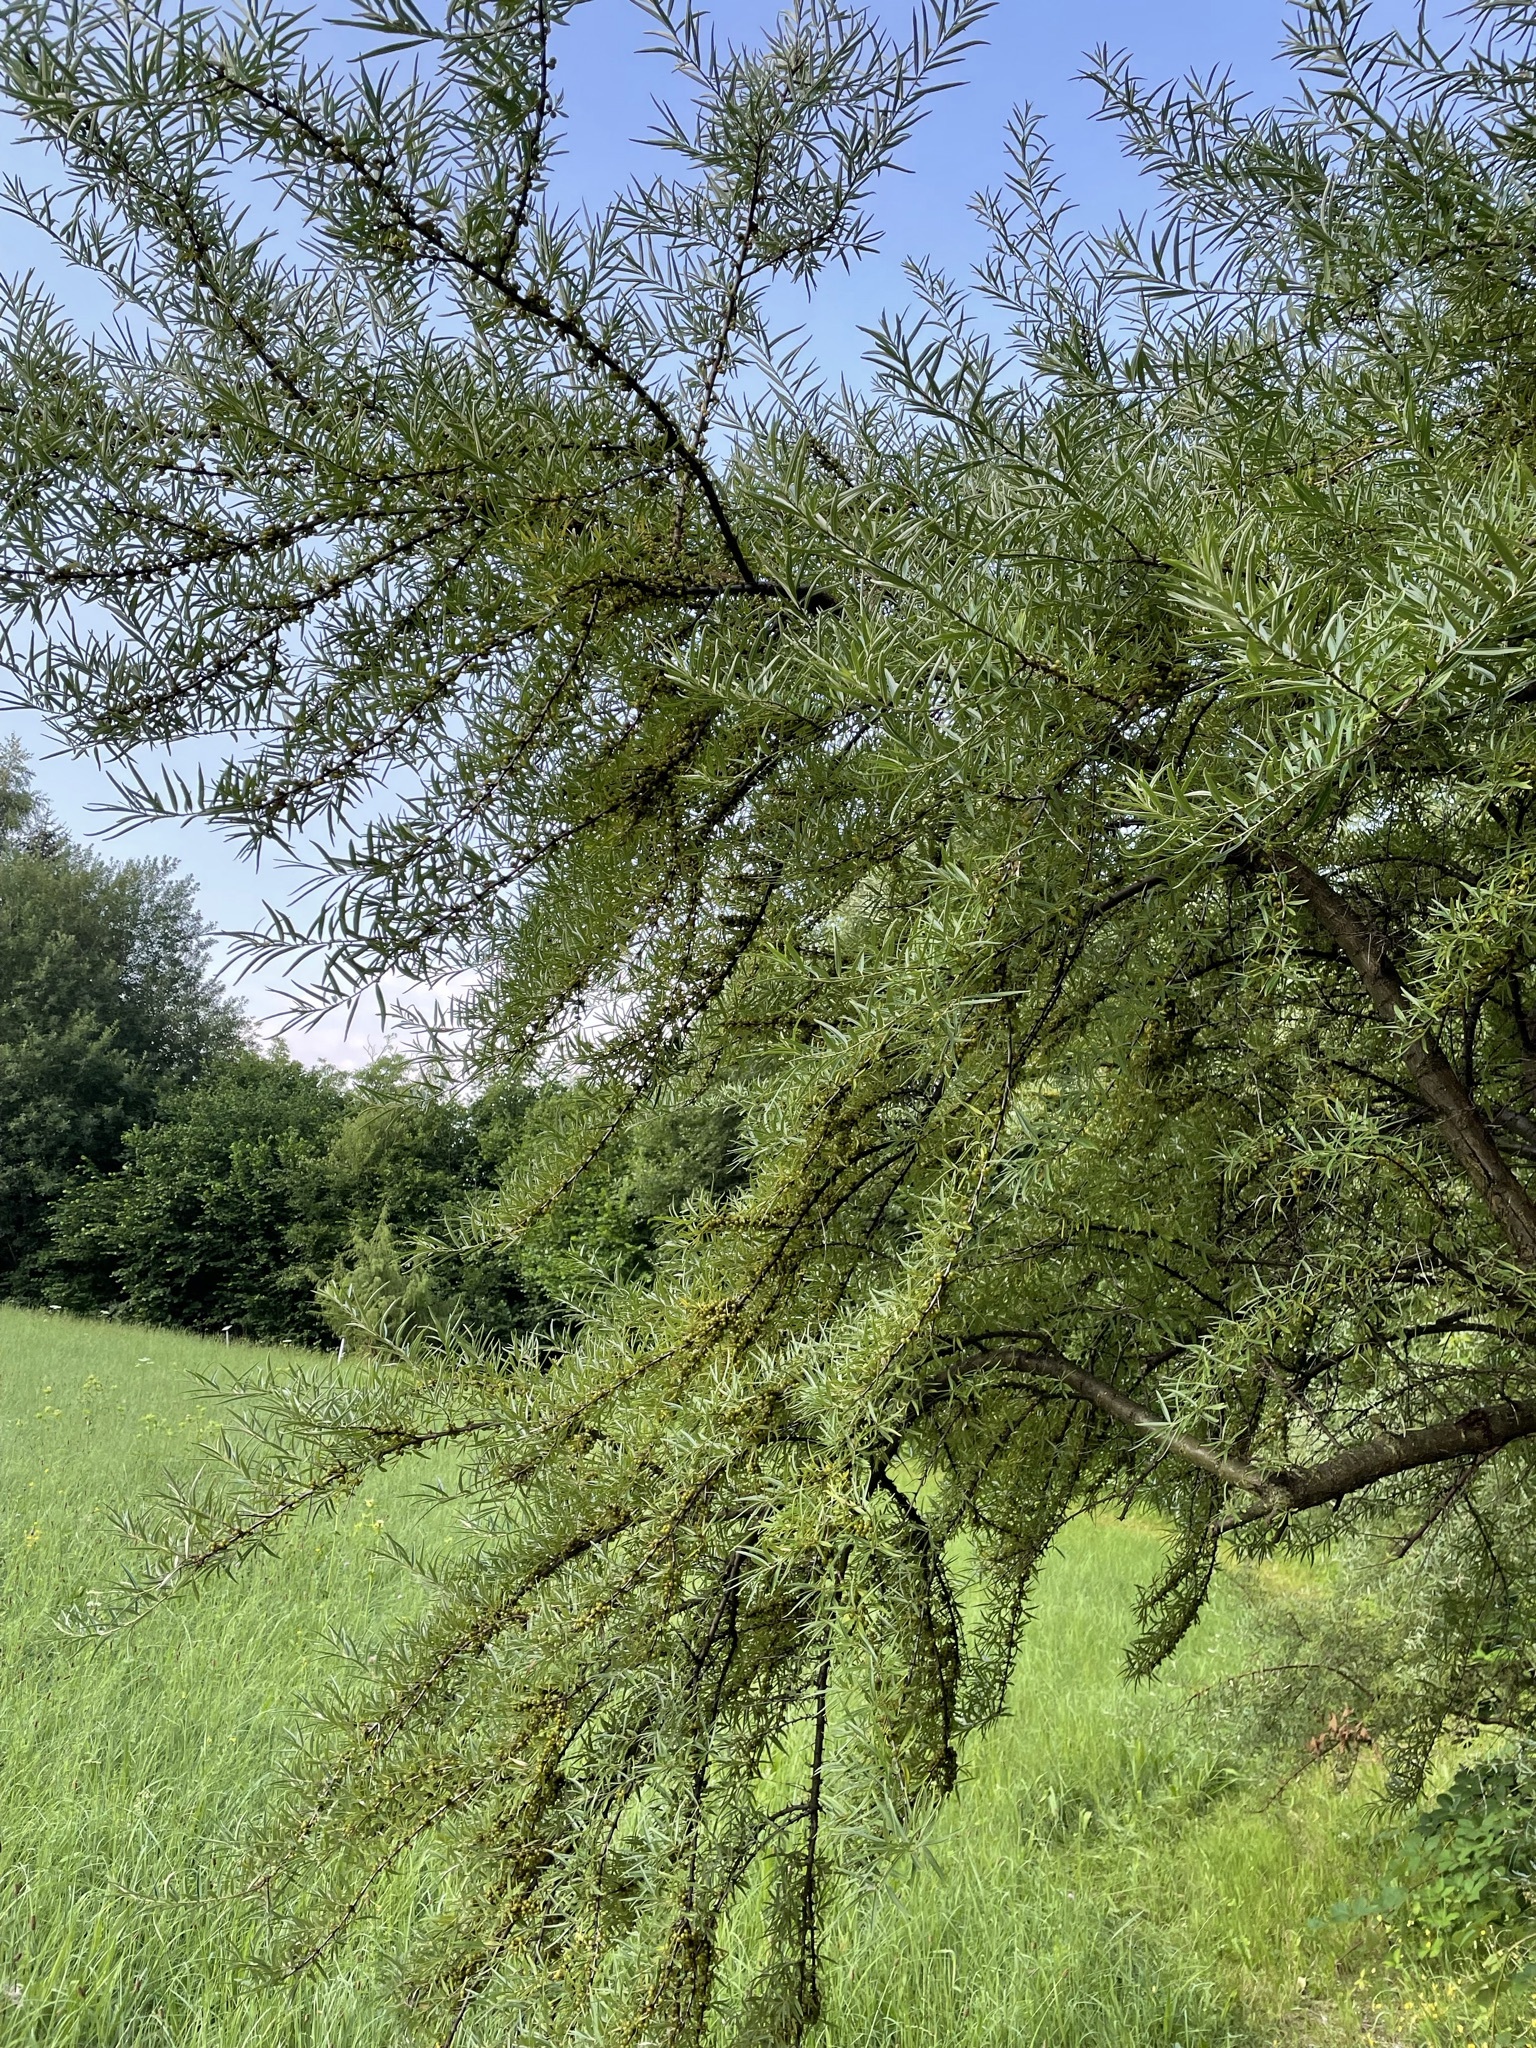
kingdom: Plantae
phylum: Tracheophyta
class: Magnoliopsida
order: Rosales
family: Elaeagnaceae
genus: Hippophae
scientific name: Hippophae rhamnoides
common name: Sea-buckthorn
